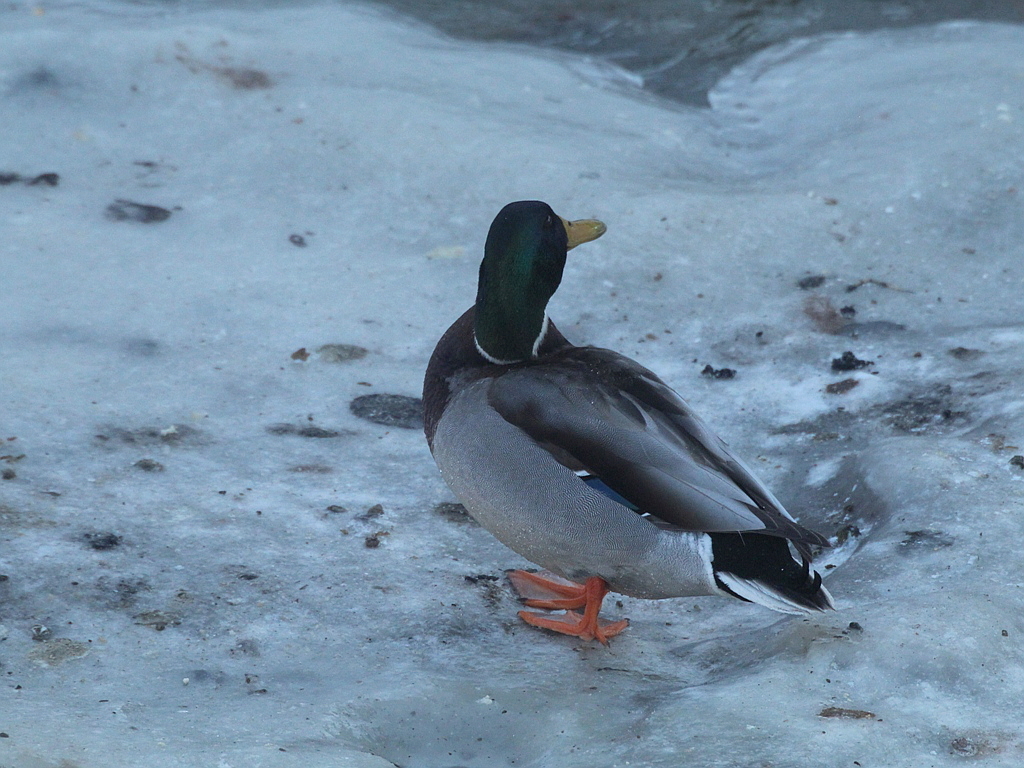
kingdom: Animalia
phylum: Chordata
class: Aves
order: Anseriformes
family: Anatidae
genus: Anas
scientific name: Anas platyrhynchos
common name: Mallard
